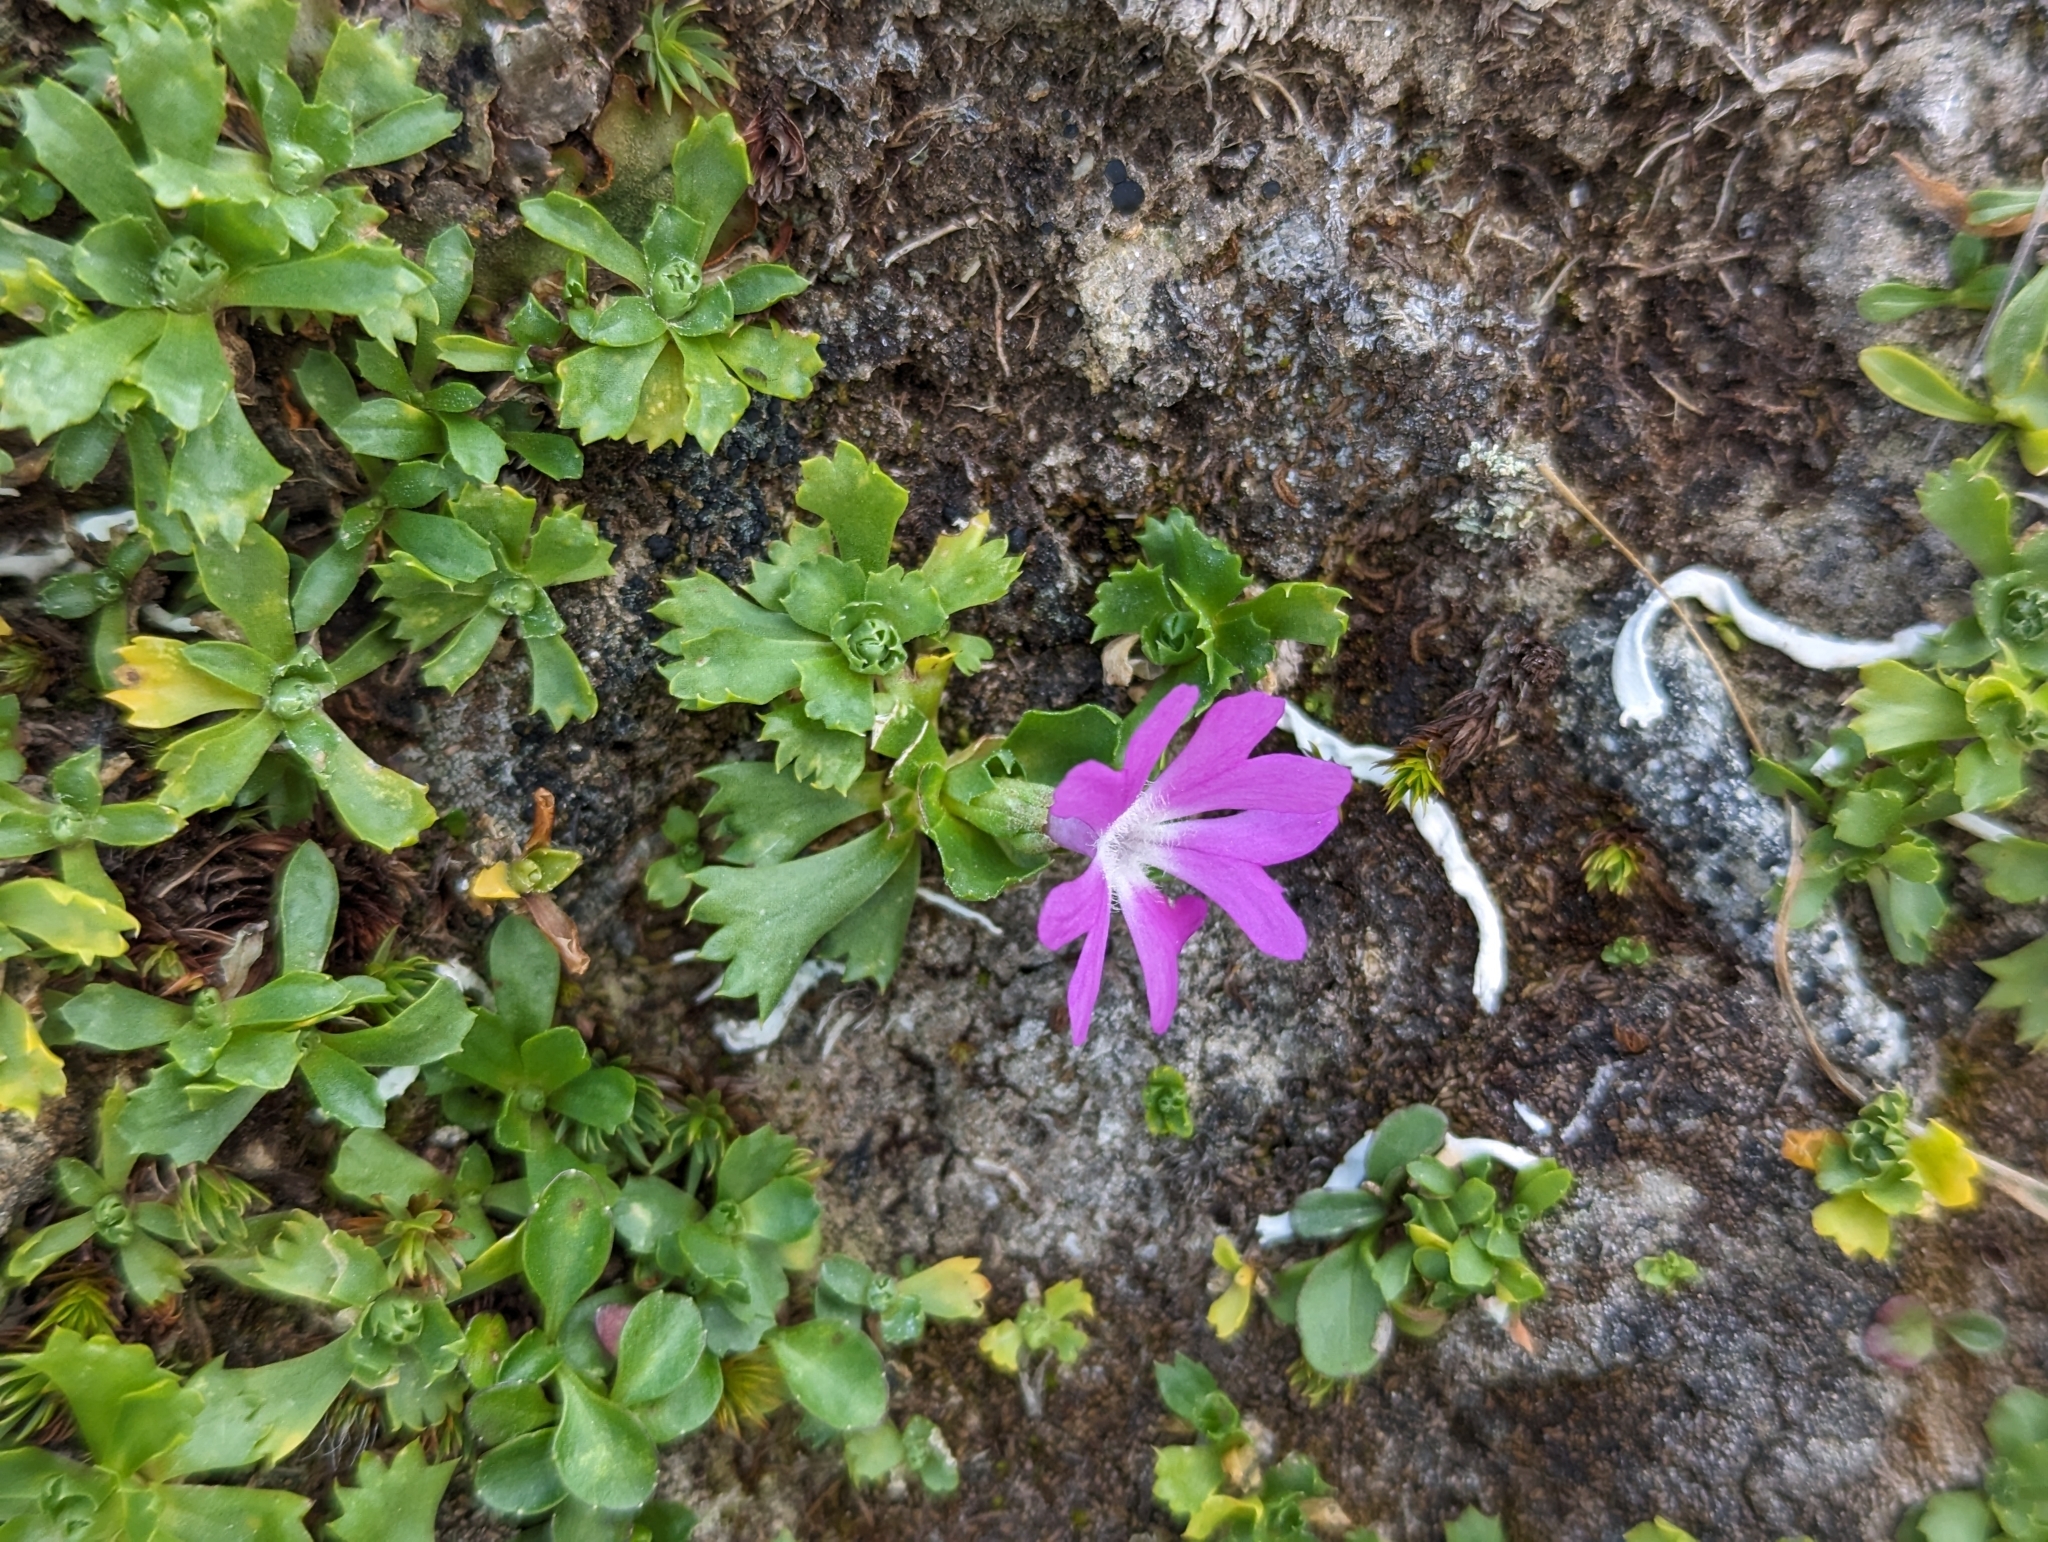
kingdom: Plantae
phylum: Tracheophyta
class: Magnoliopsida
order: Ericales
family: Primulaceae
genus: Primula
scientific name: Primula minima
